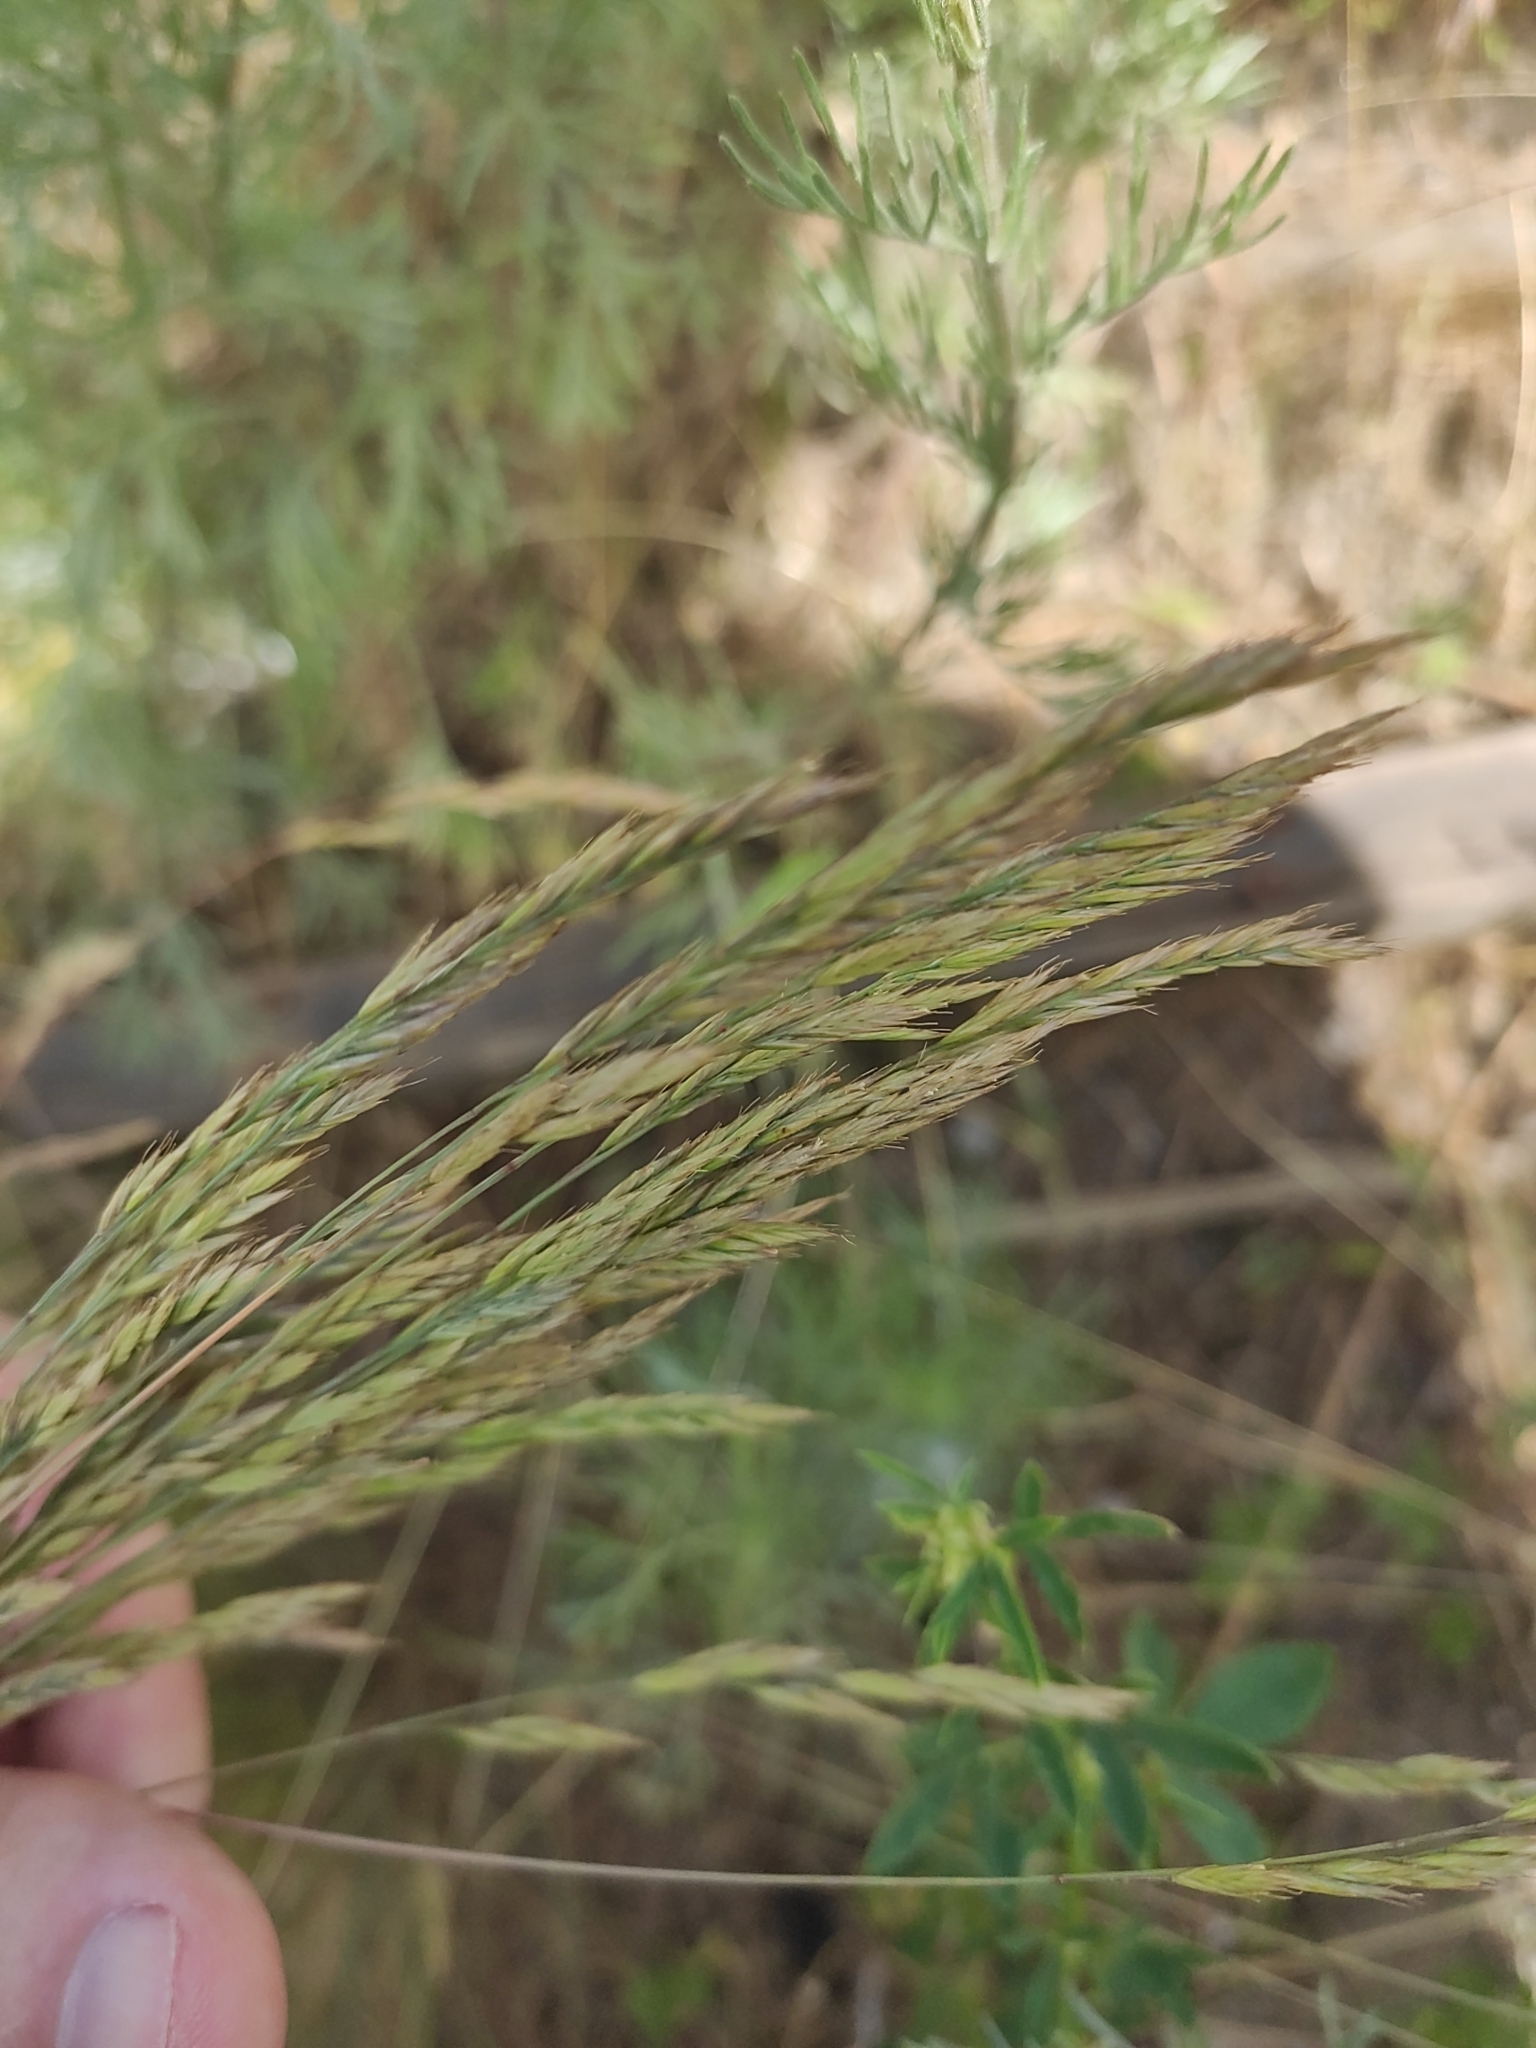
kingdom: Plantae
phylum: Tracheophyta
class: Liliopsida
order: Poales
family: Poaceae
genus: Festuca
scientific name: Festuca rupicola
